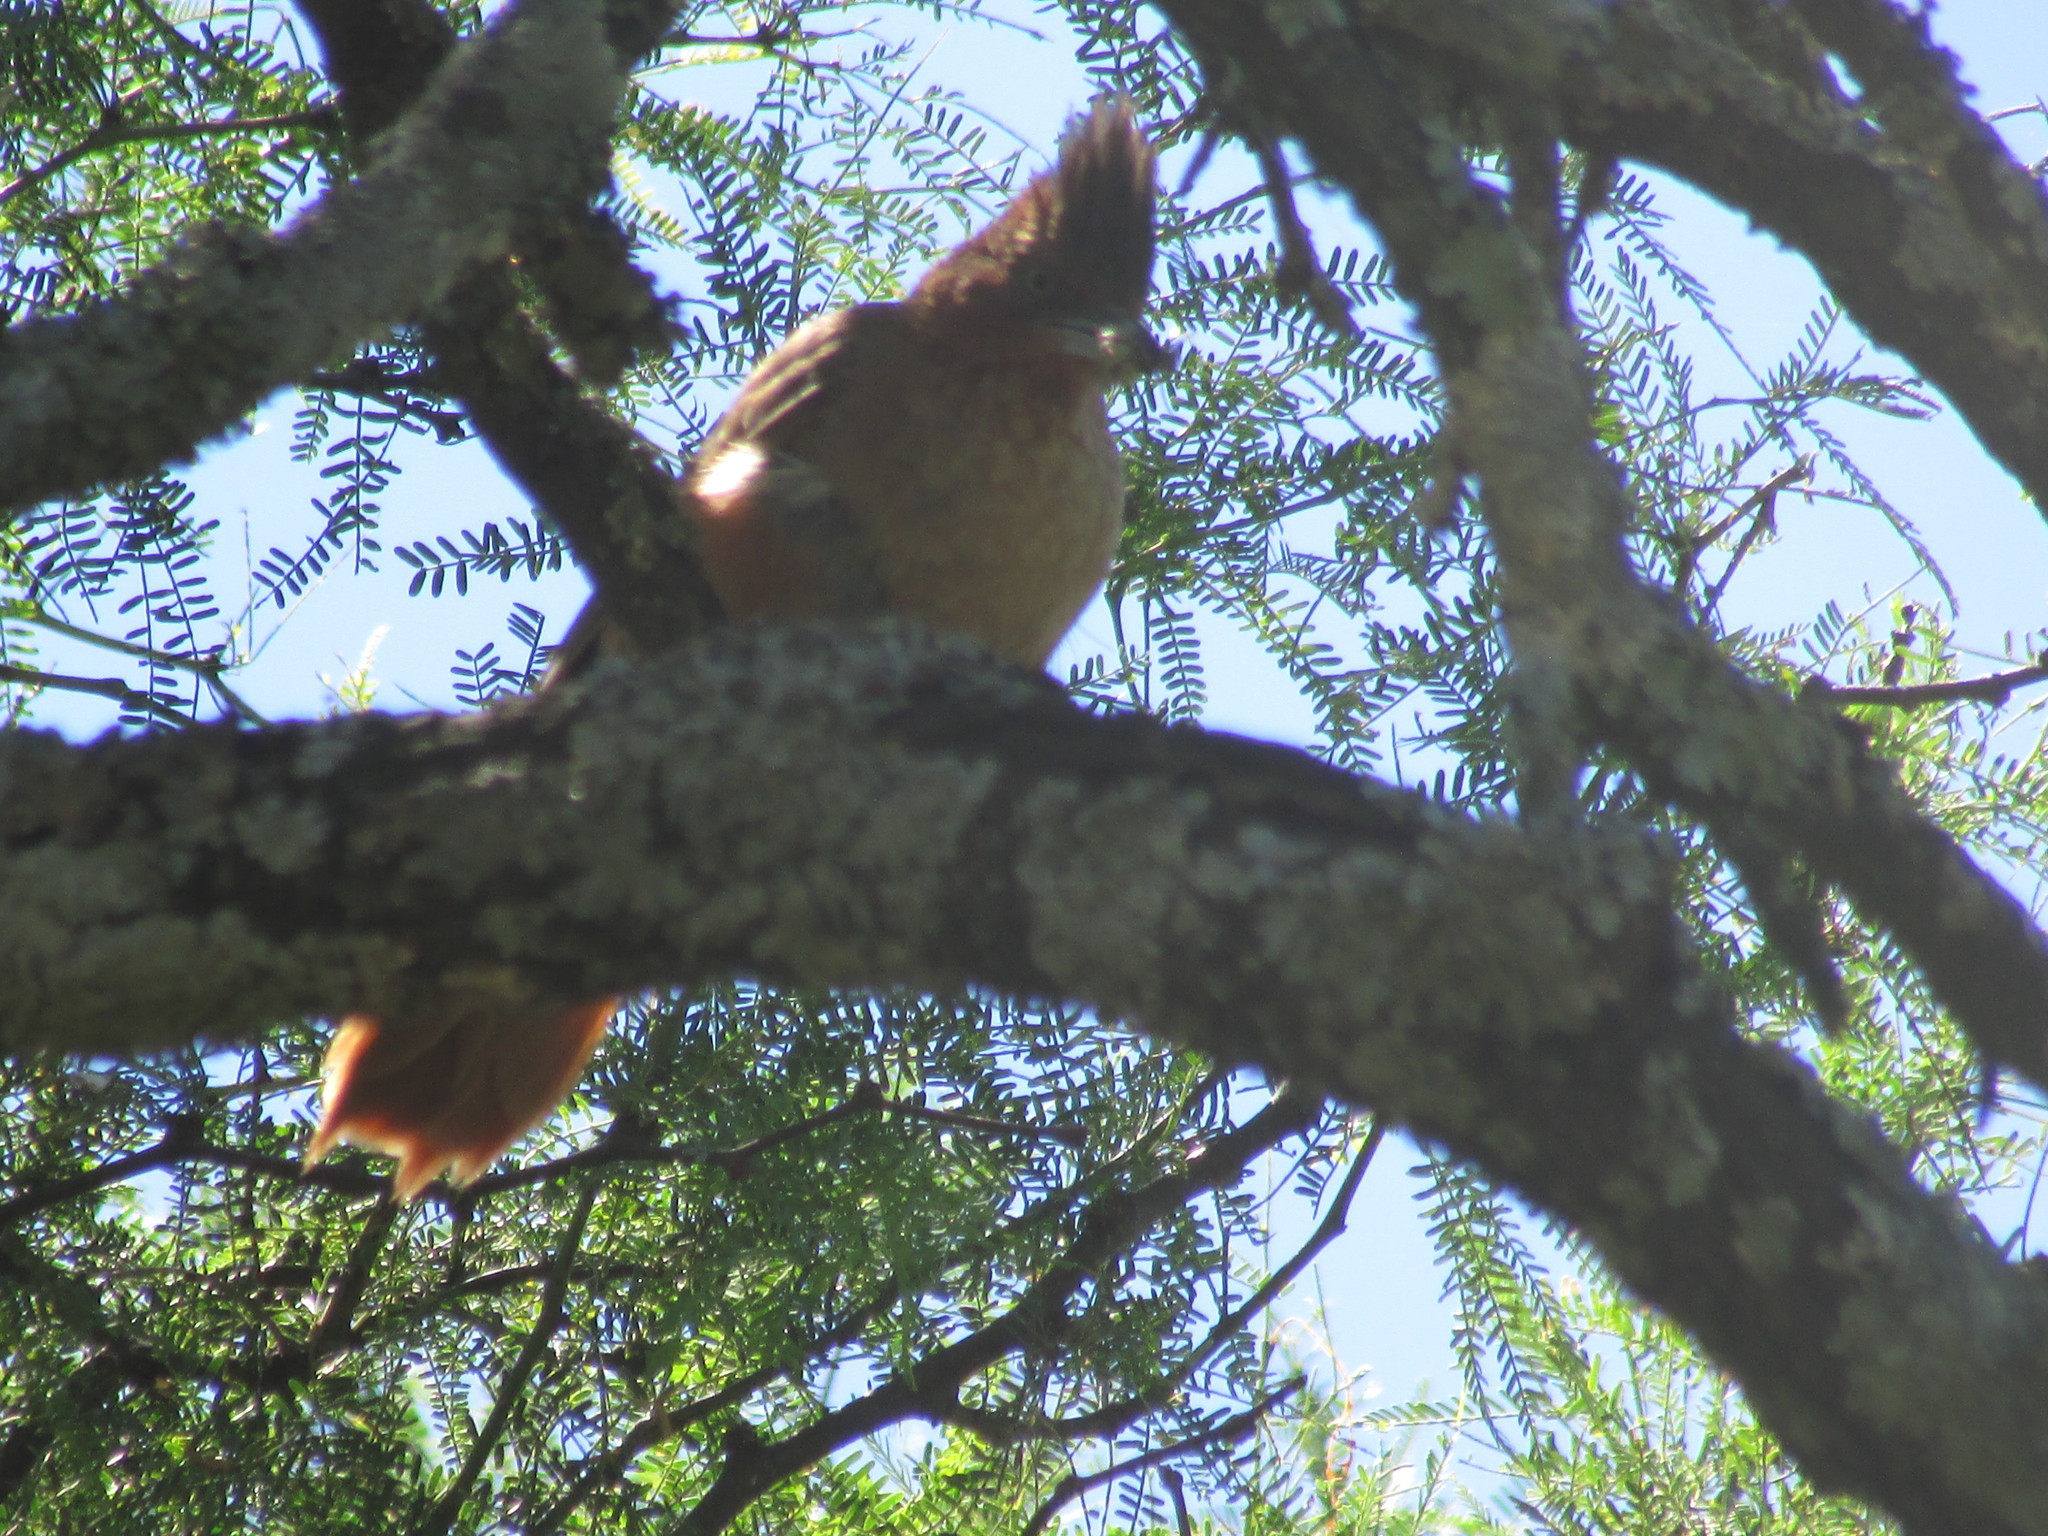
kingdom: Animalia
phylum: Chordata
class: Aves
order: Passeriformes
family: Furnariidae
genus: Pseudoseisura
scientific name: Pseudoseisura lophotes
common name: Brown cacholote
